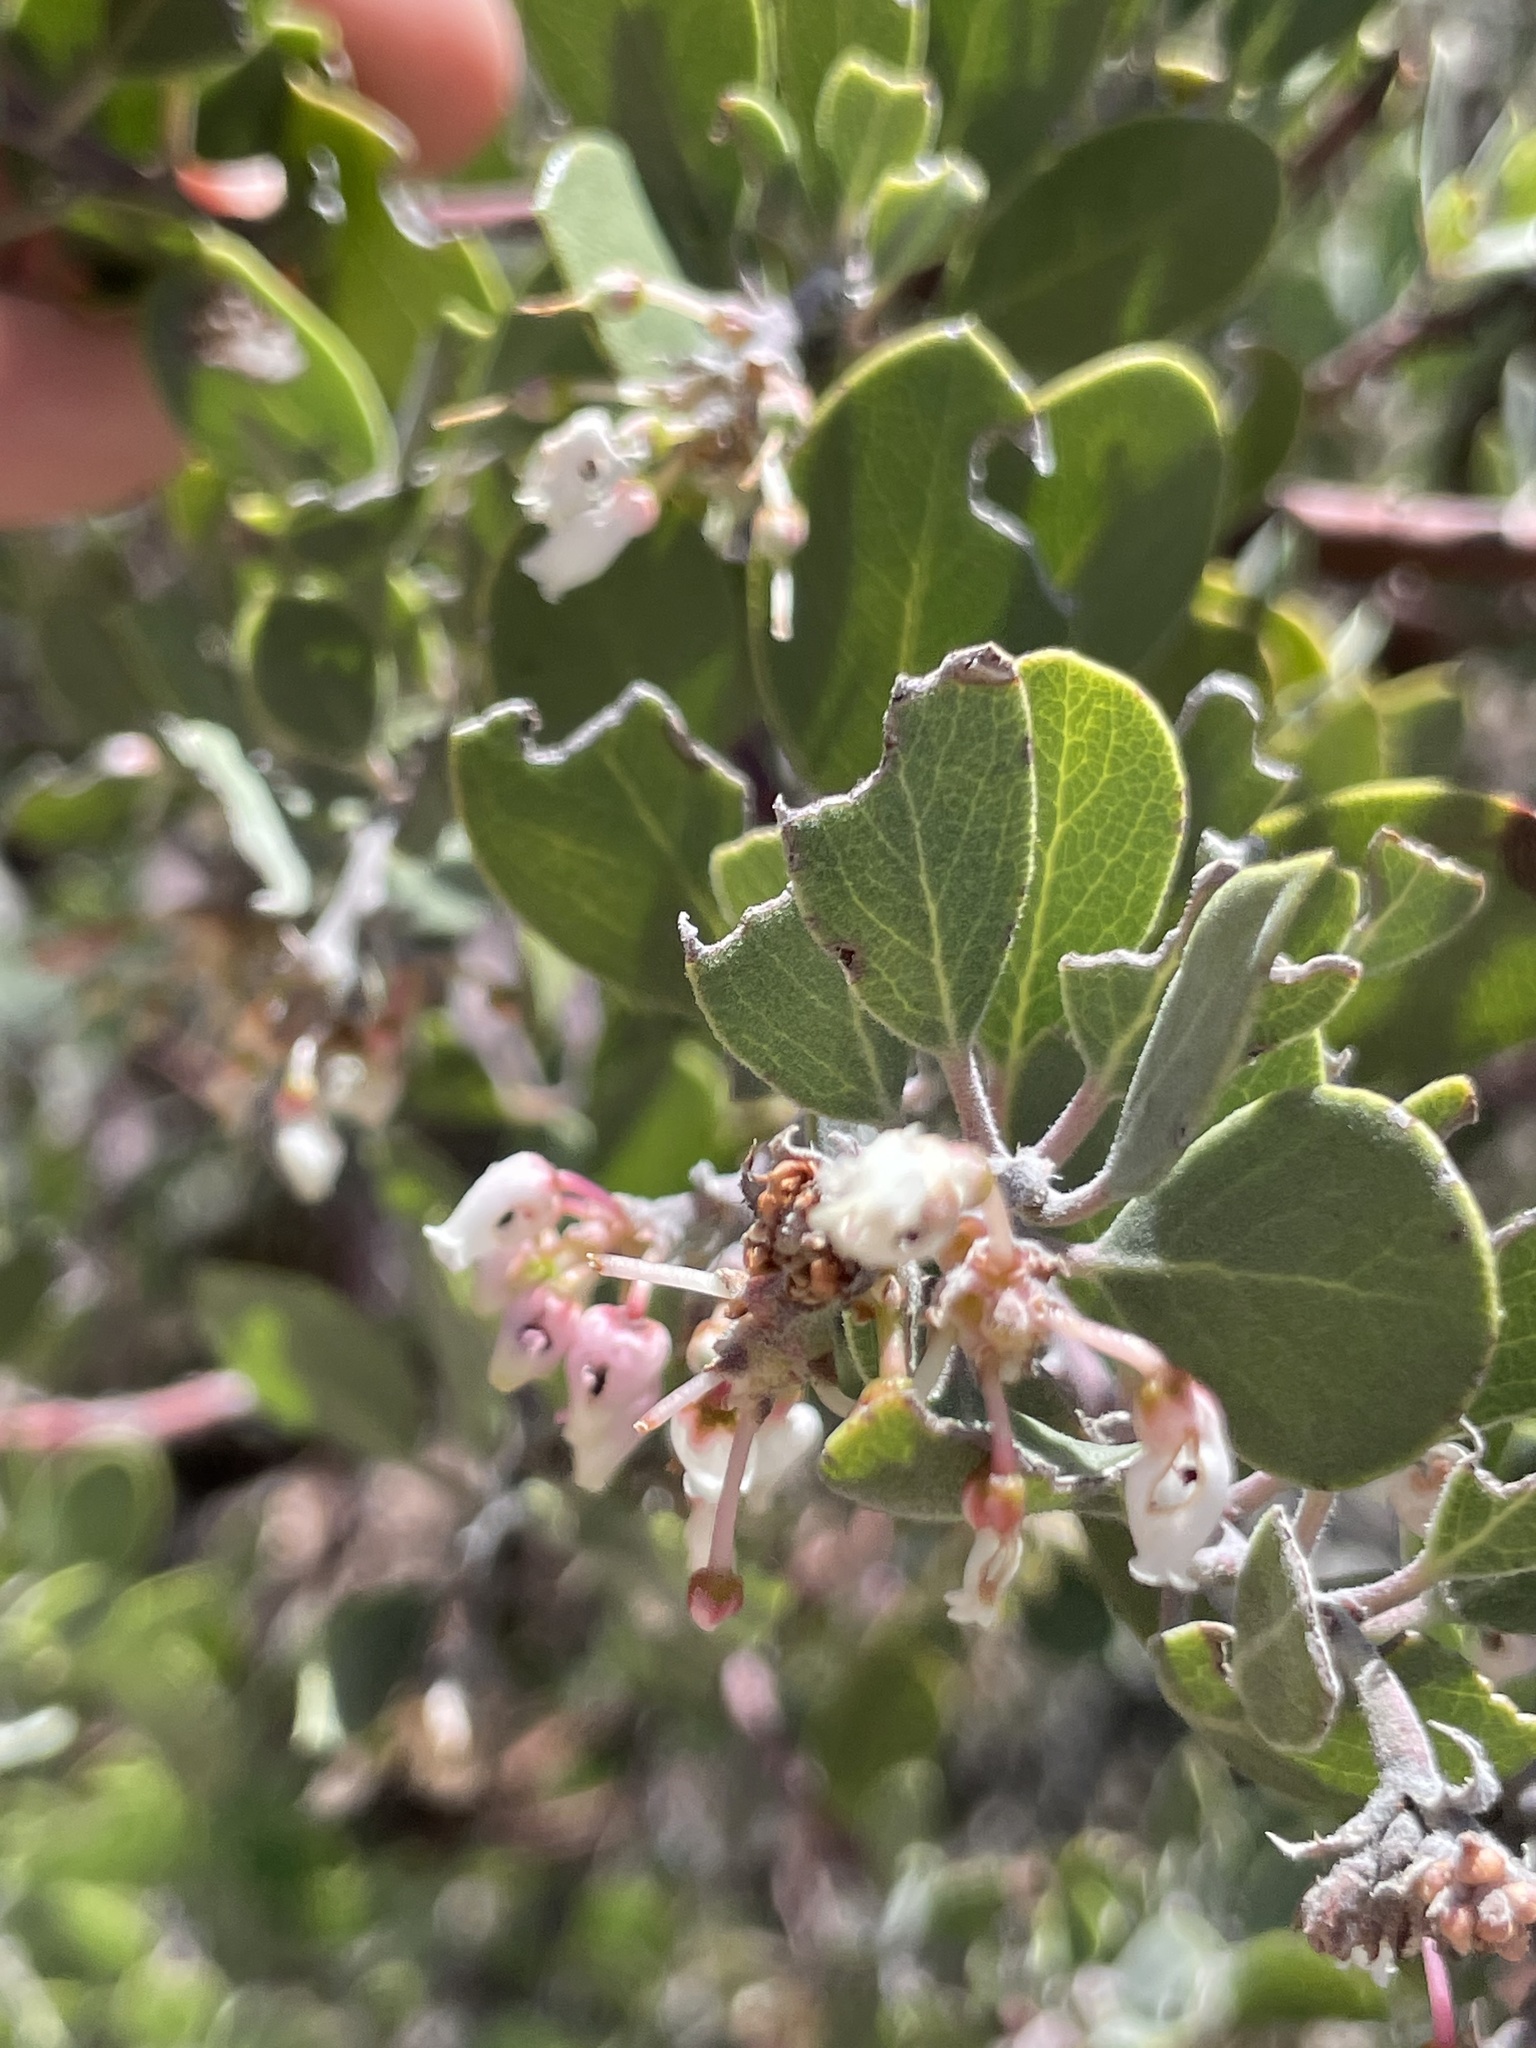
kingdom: Plantae
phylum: Tracheophyta
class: Magnoliopsida
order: Ericales
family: Ericaceae
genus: Arctostaphylos
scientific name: Arctostaphylos pungens
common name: Mexican manzanita
